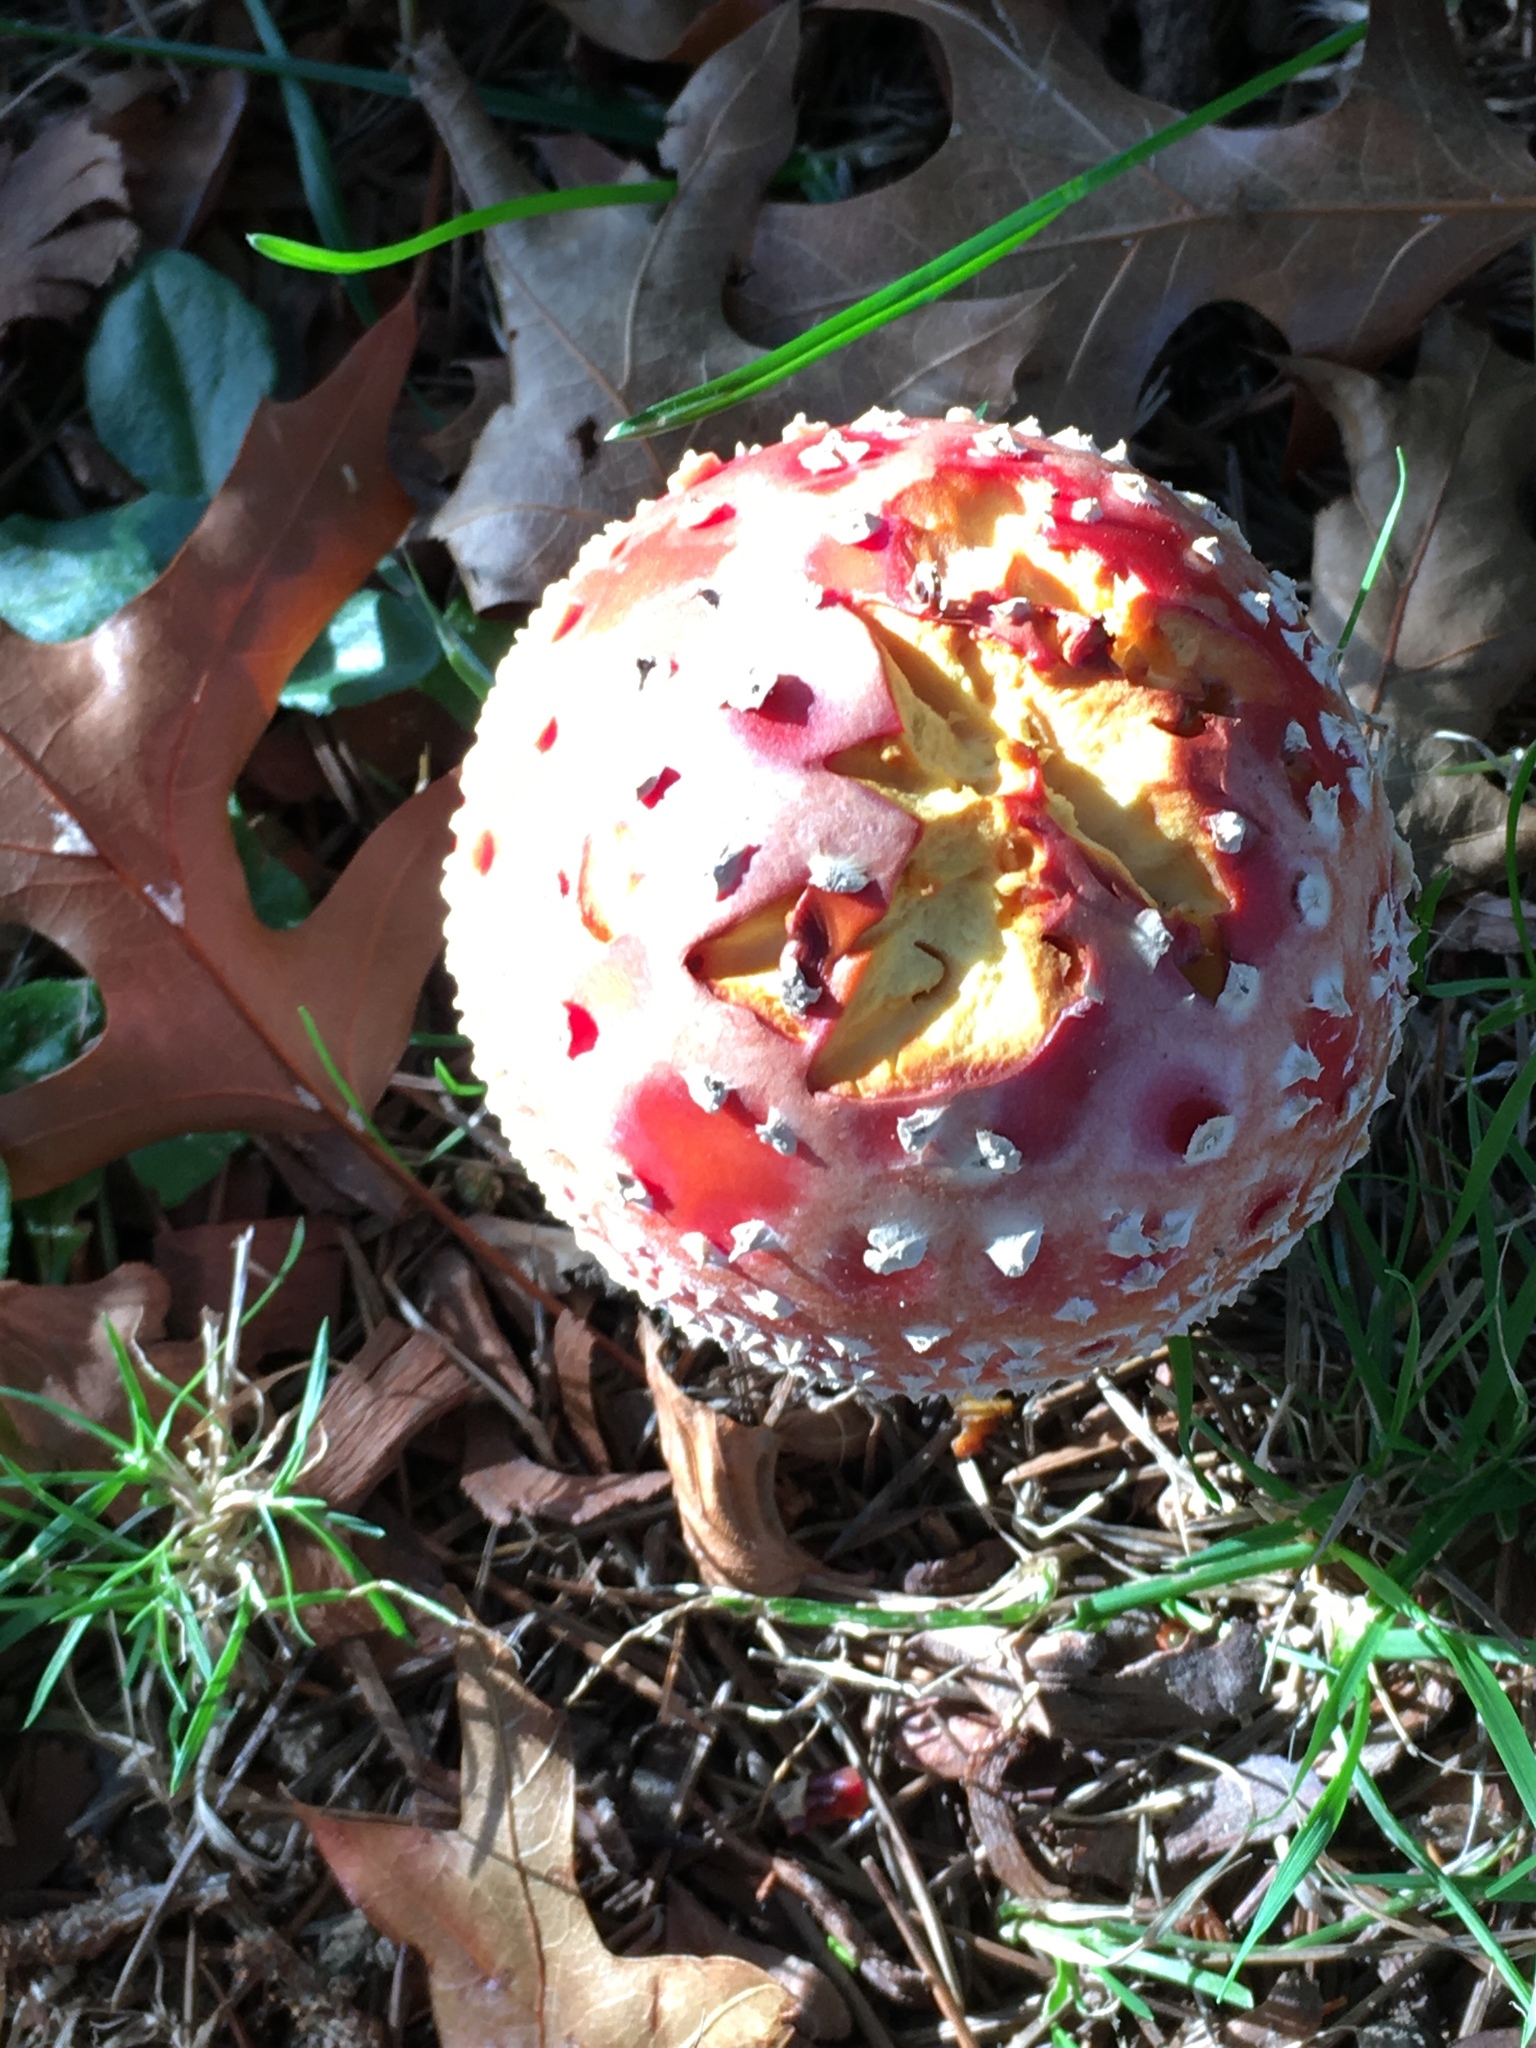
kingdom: Fungi
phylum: Basidiomycota
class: Agaricomycetes
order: Agaricales
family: Amanitaceae
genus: Amanita
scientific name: Amanita muscaria
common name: Fly agaric
